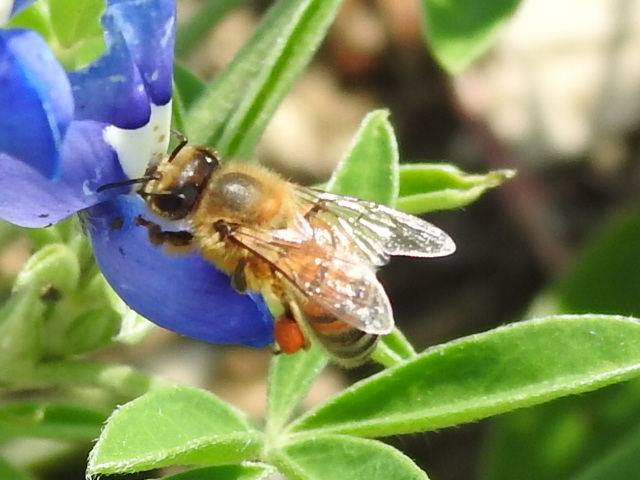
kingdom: Animalia
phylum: Arthropoda
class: Insecta
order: Hymenoptera
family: Apidae
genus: Apis
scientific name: Apis mellifera
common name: Honey bee
